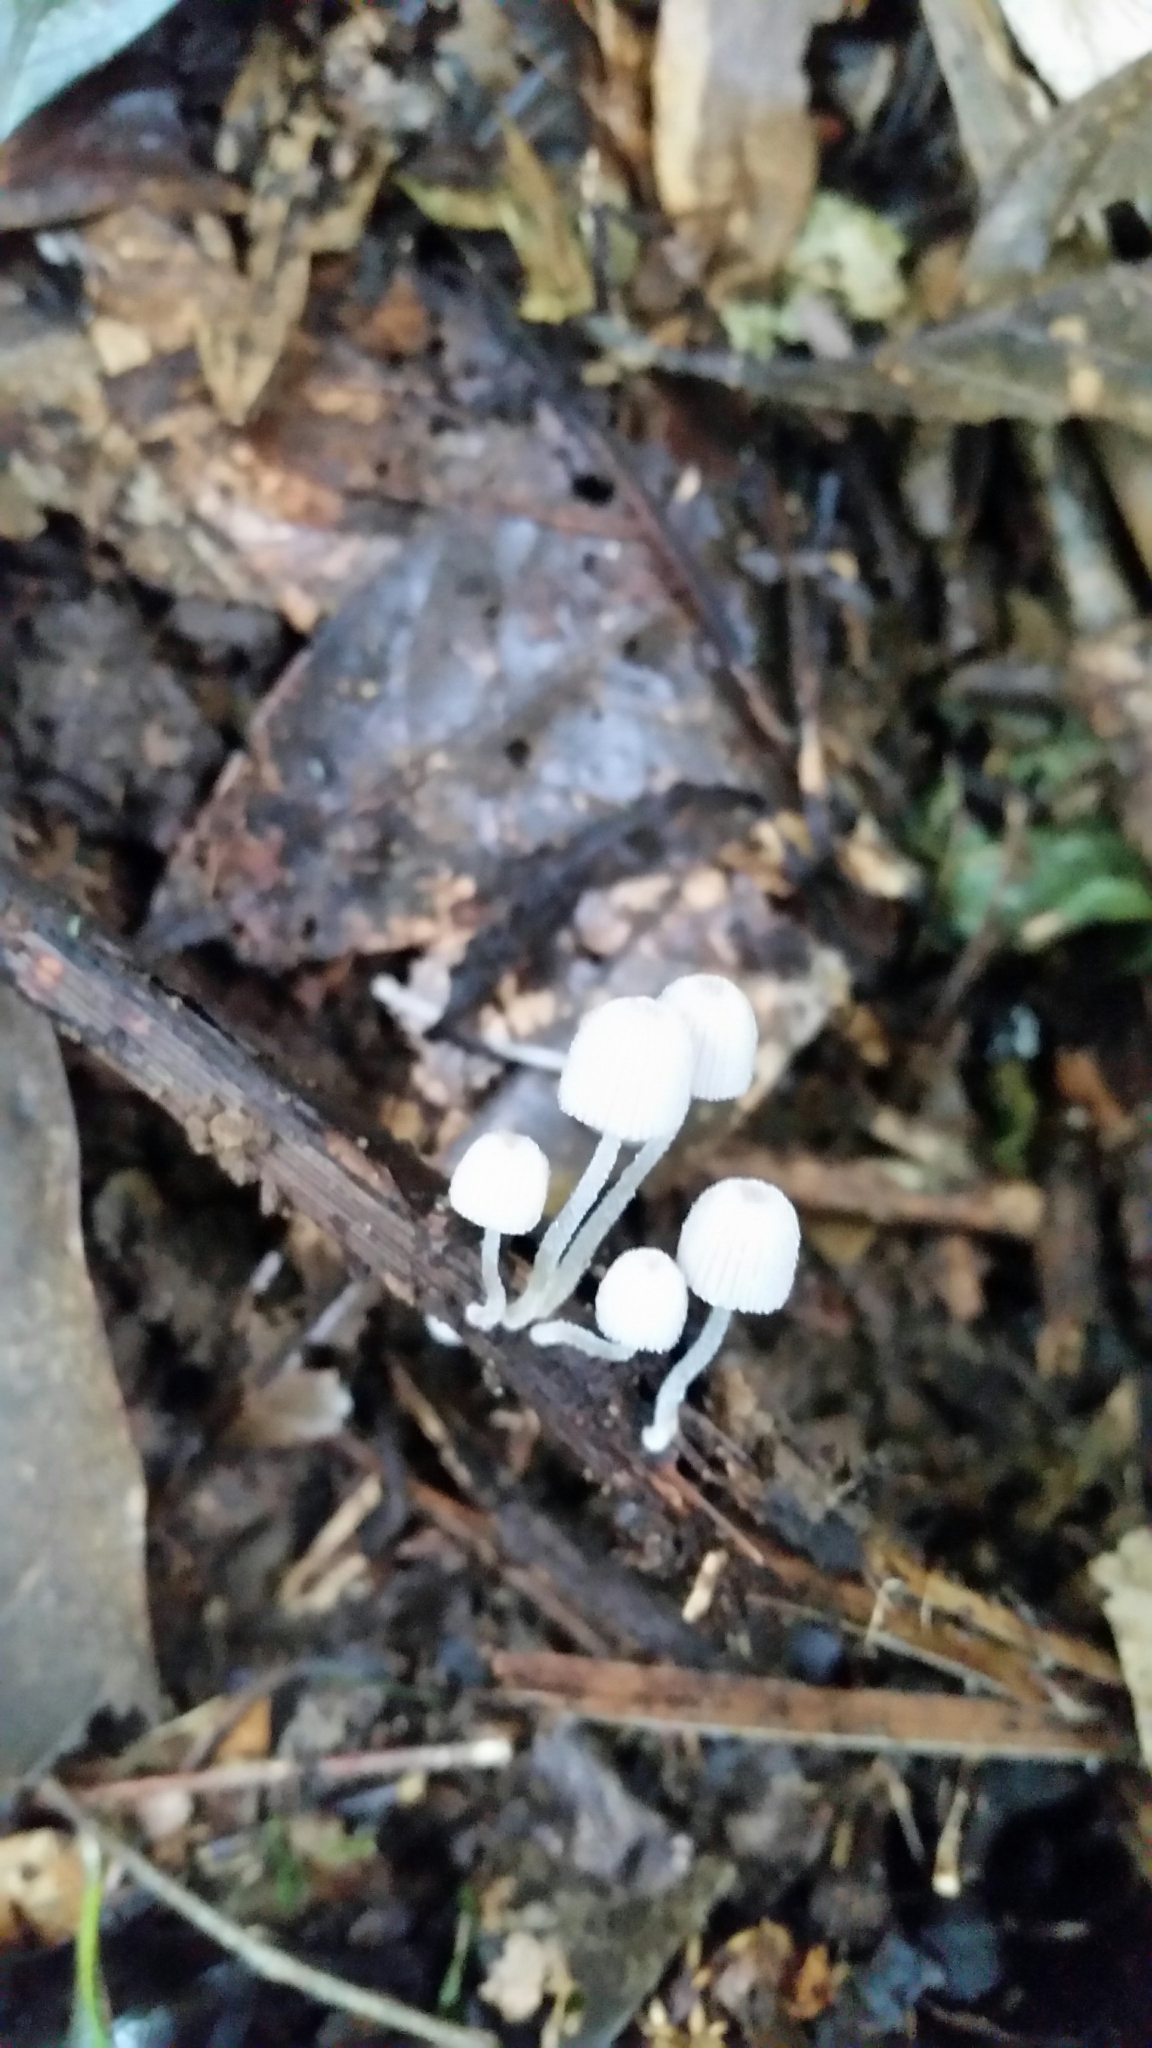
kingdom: Fungi
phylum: Basidiomycota
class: Agaricomycetes
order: Agaricales
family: Psathyrellaceae
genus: Coprinellus
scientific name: Coprinellus disseminatus
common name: Fairies' bonnets
